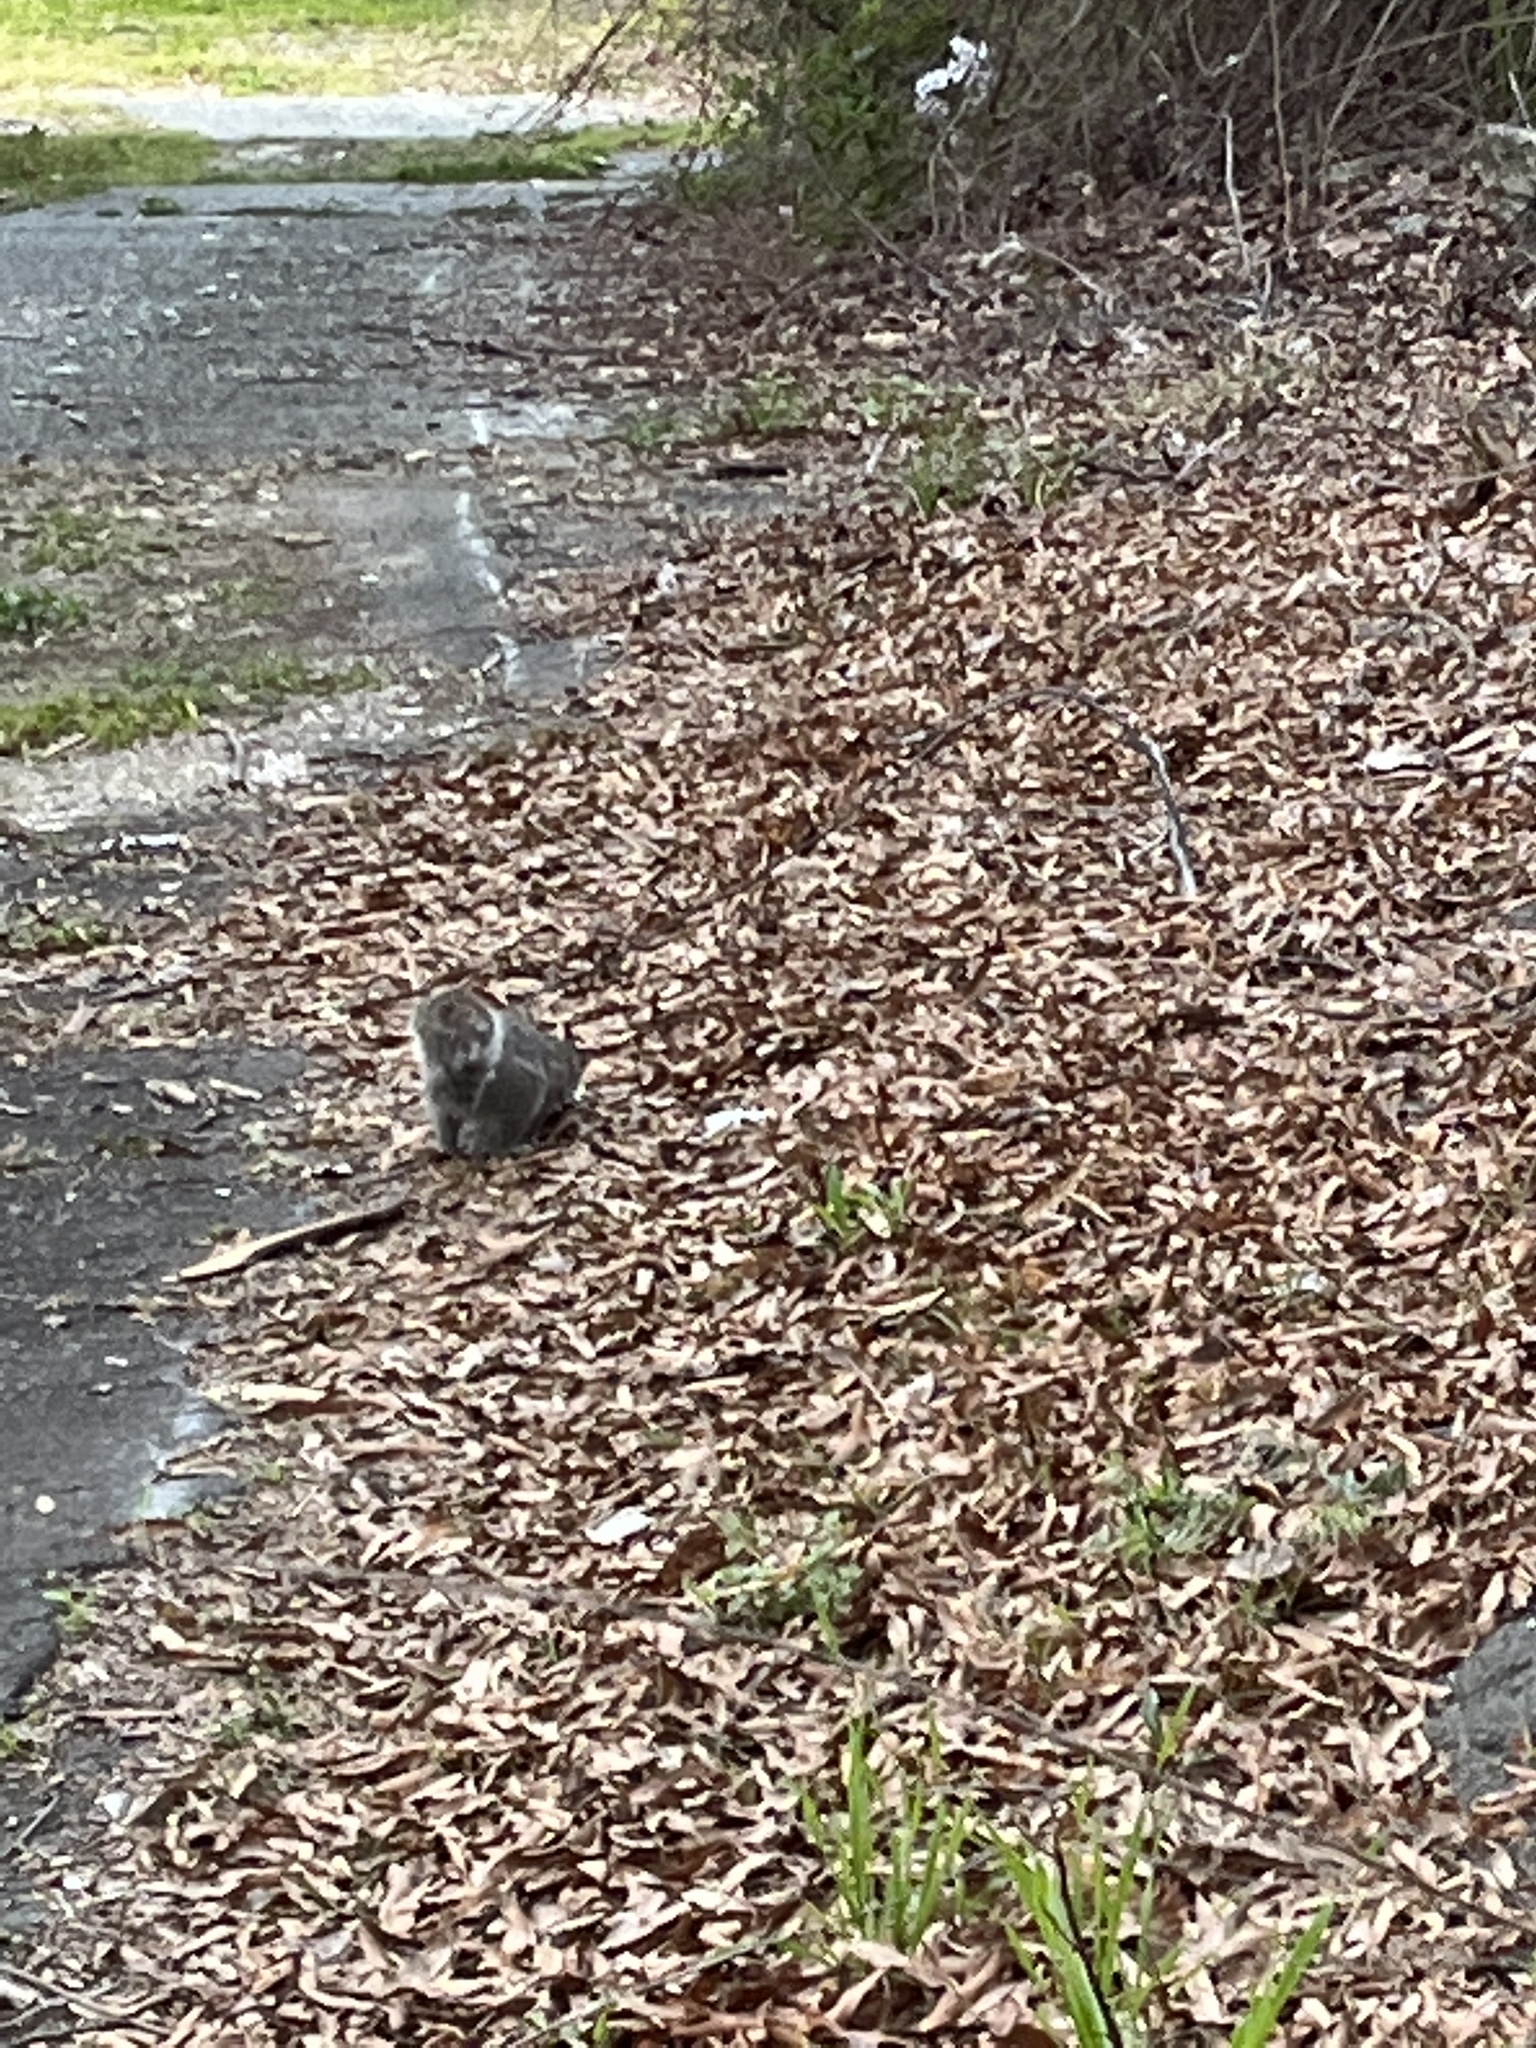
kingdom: Animalia
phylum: Chordata
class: Mammalia
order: Rodentia
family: Sciuridae
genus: Sciurus
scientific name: Sciurus carolinensis
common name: Eastern gray squirrel
